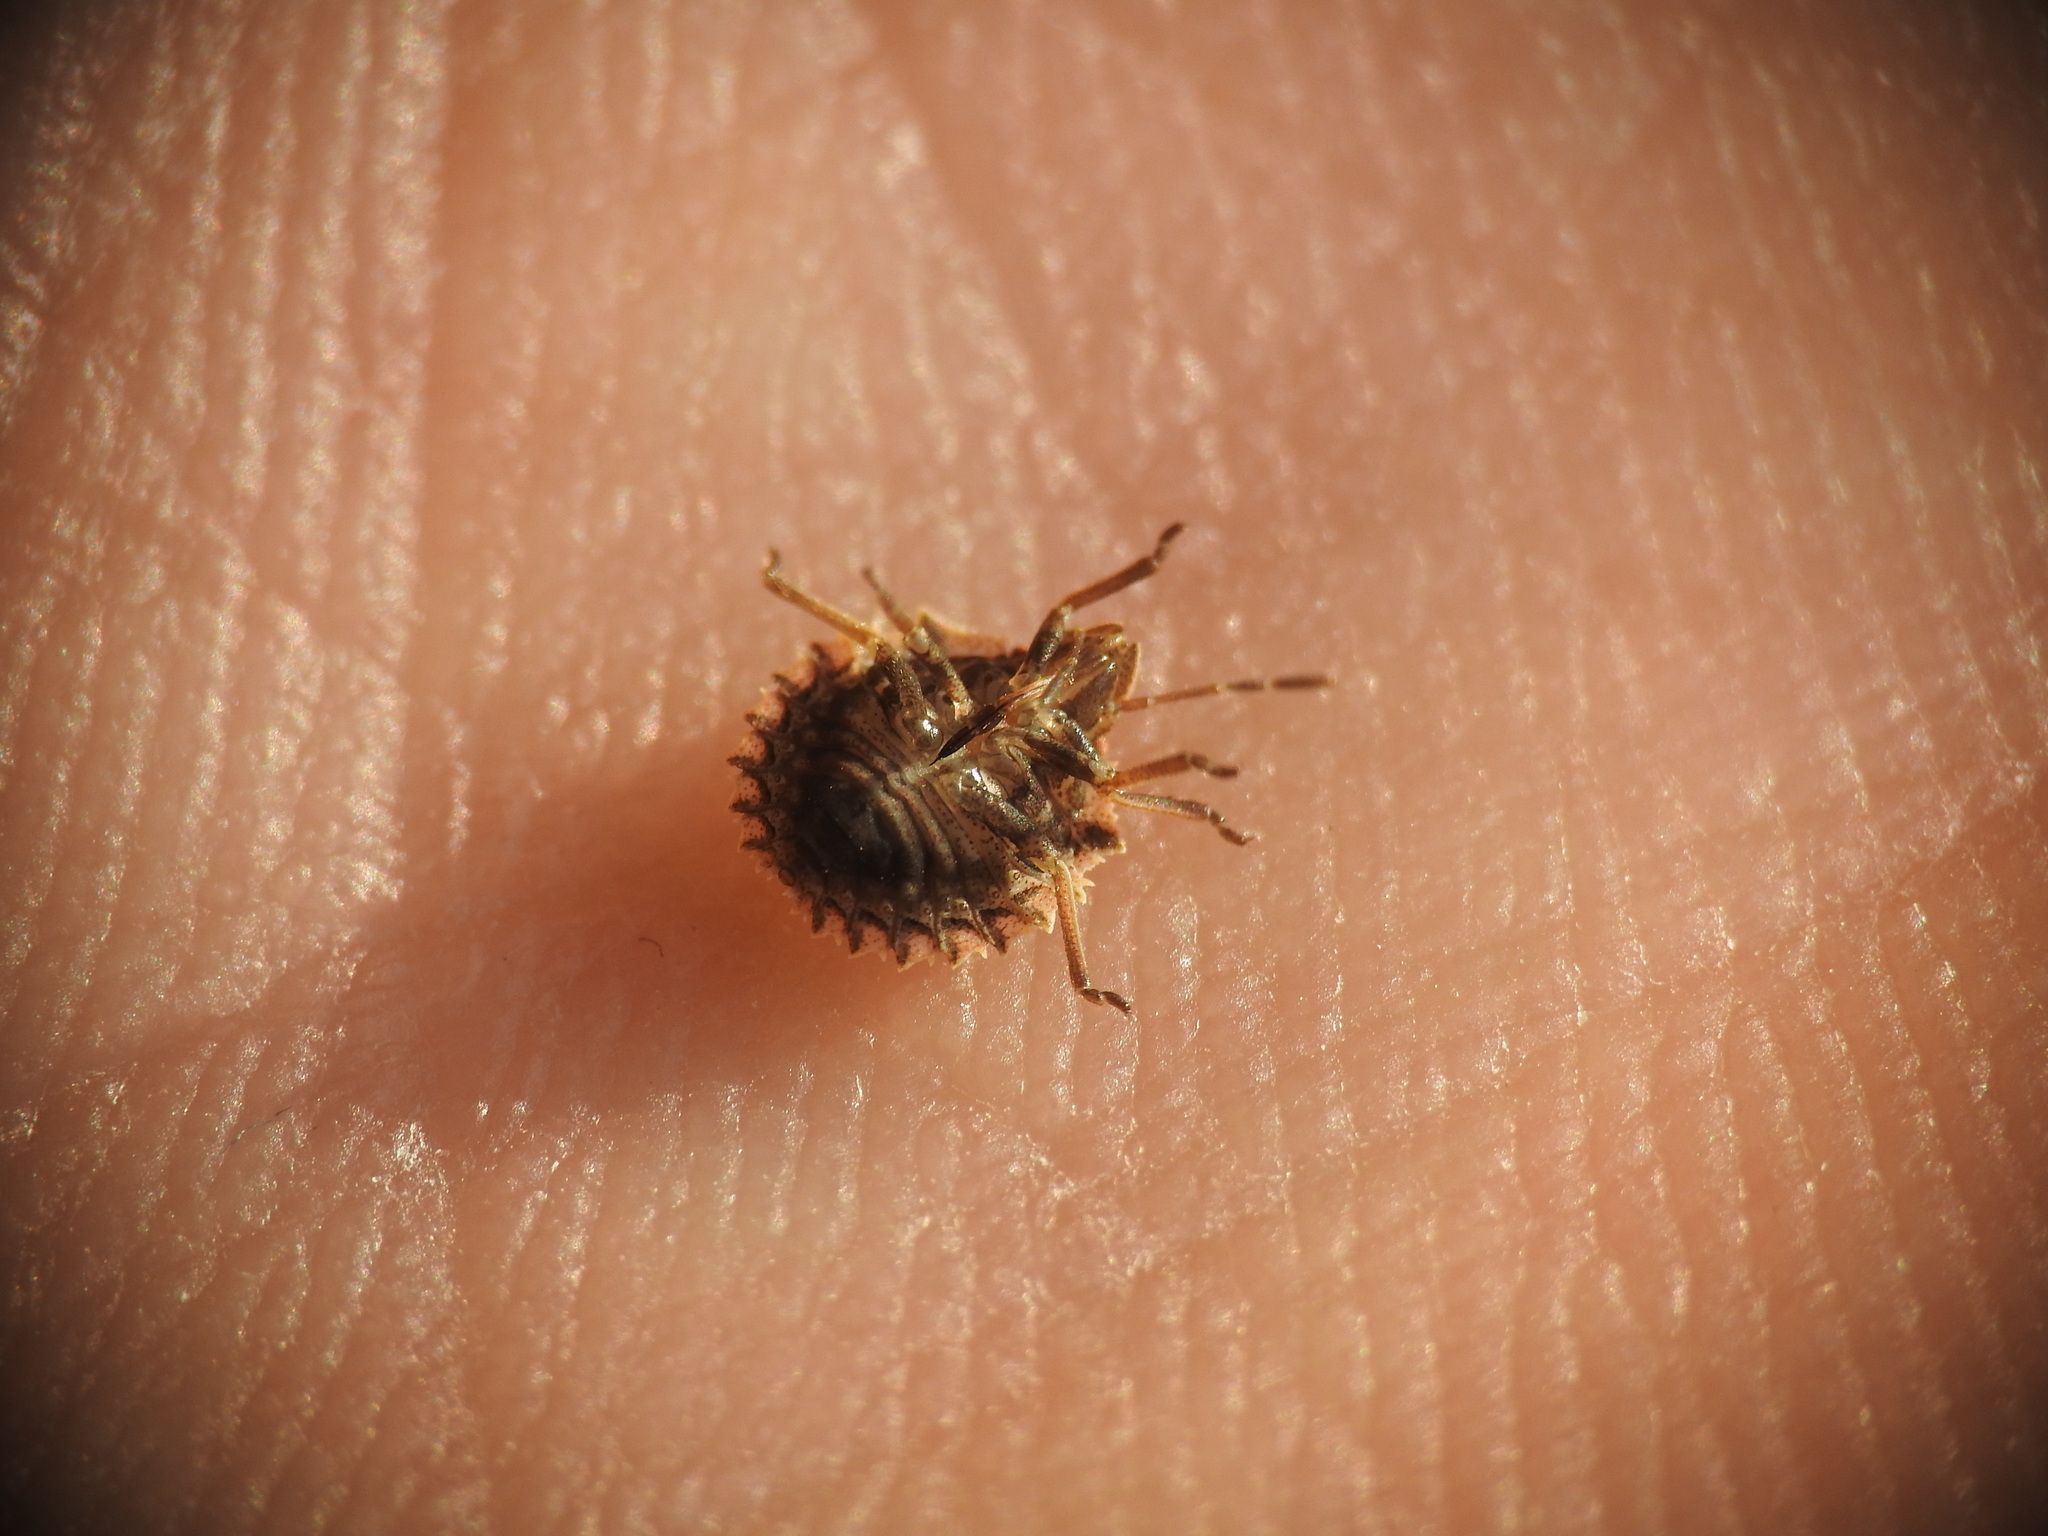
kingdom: Animalia
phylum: Arthropoda
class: Insecta
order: Hemiptera
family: Pentatomidae
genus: Ancyrosoma
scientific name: Ancyrosoma leucogrammes
